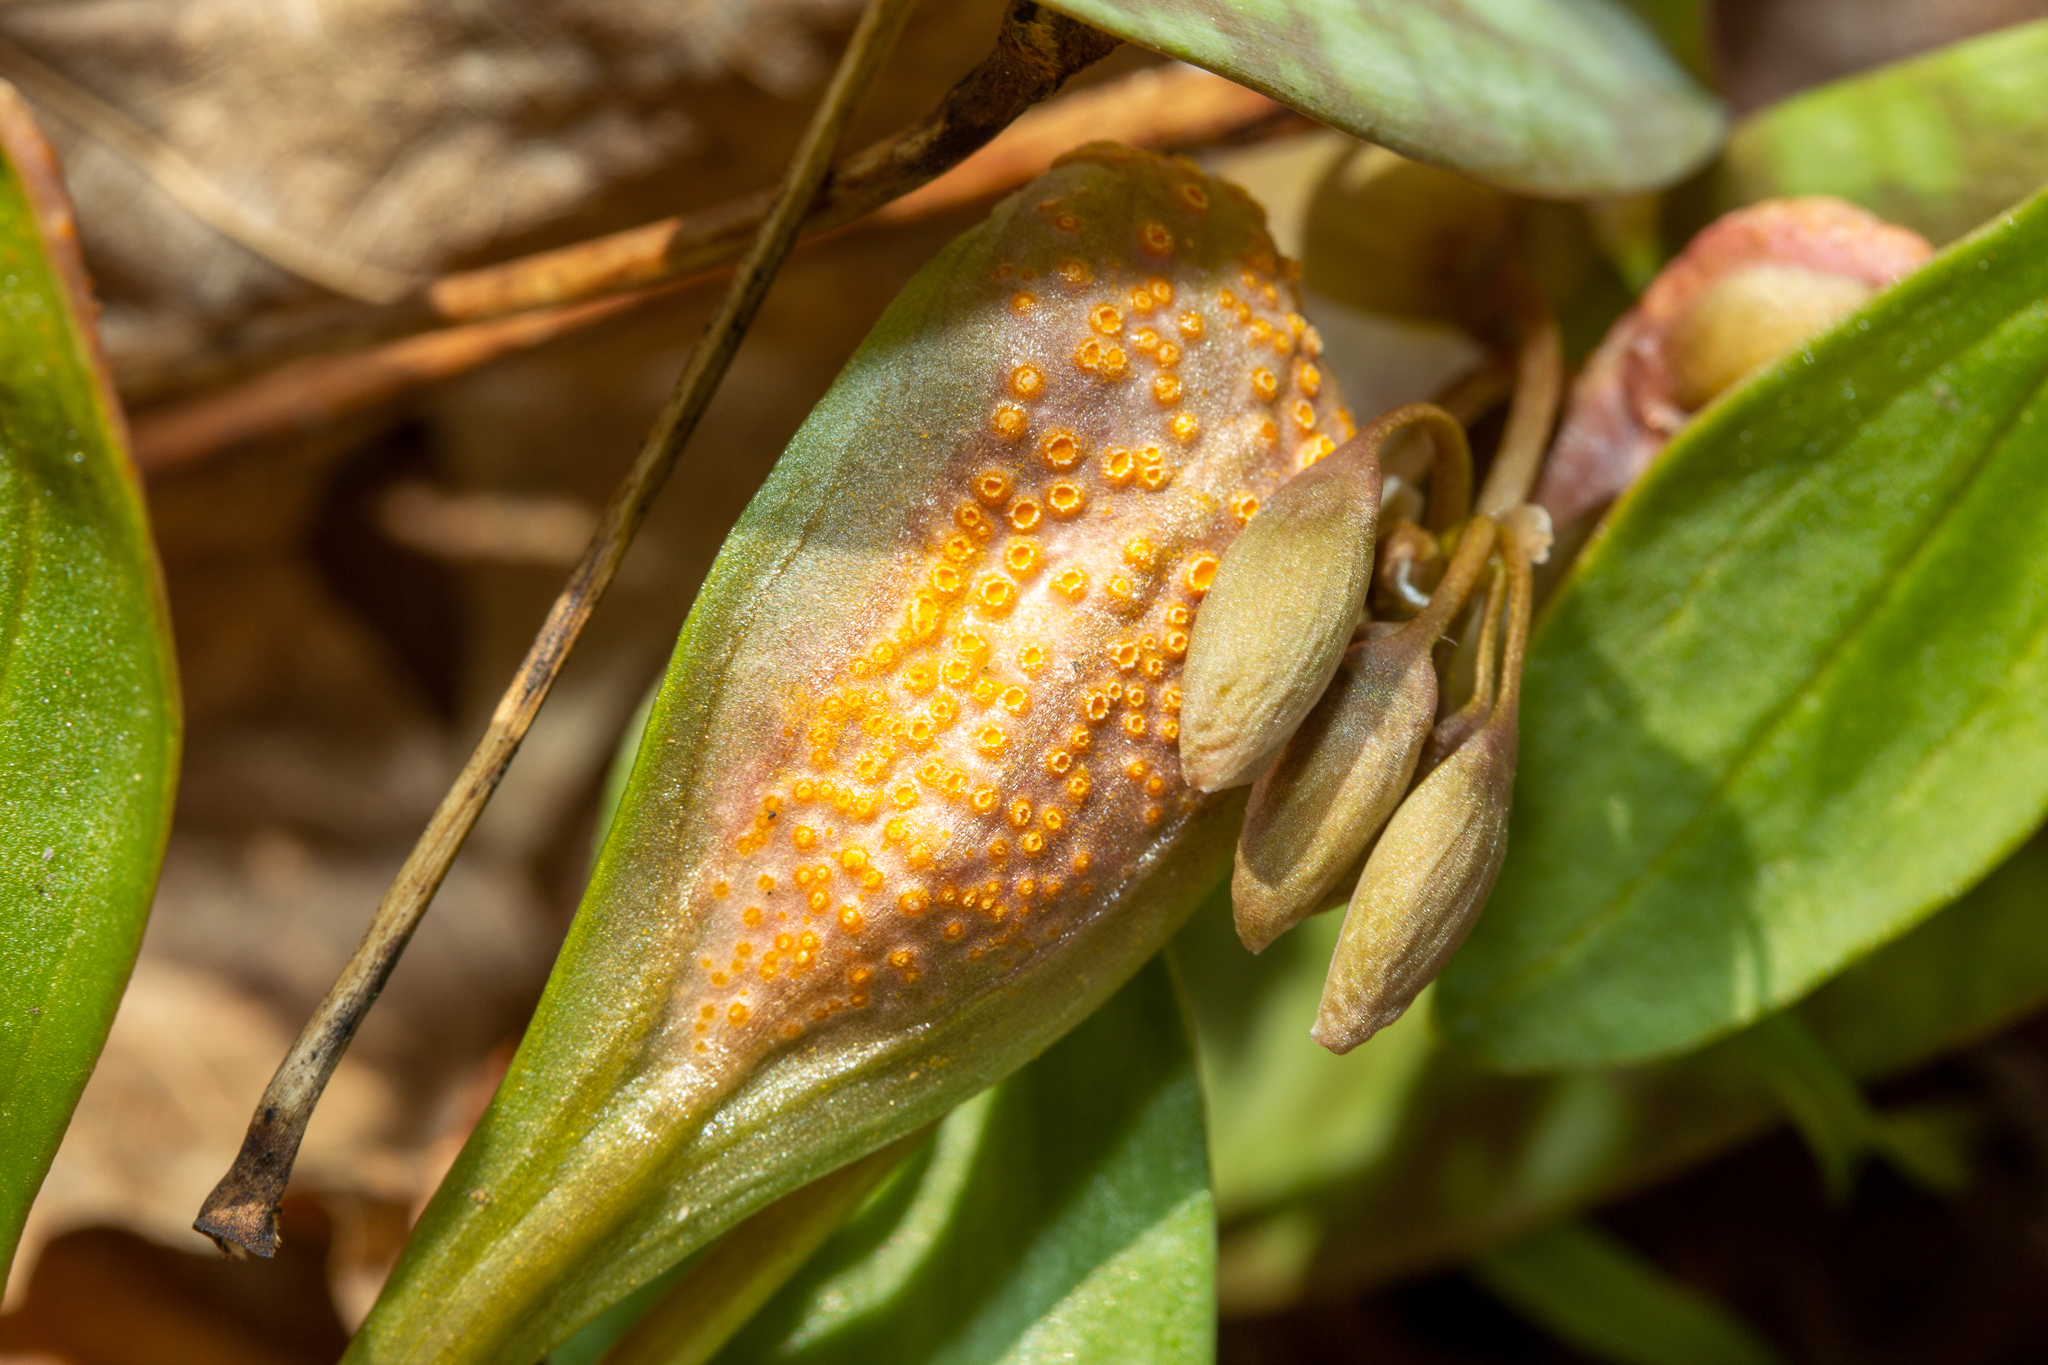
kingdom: Fungi
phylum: Basidiomycota
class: Pucciniomycetes
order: Pucciniales
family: Pucciniaceae
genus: Puccinia
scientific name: Puccinia mariae-wilsoniae
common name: Spring beauty rust
